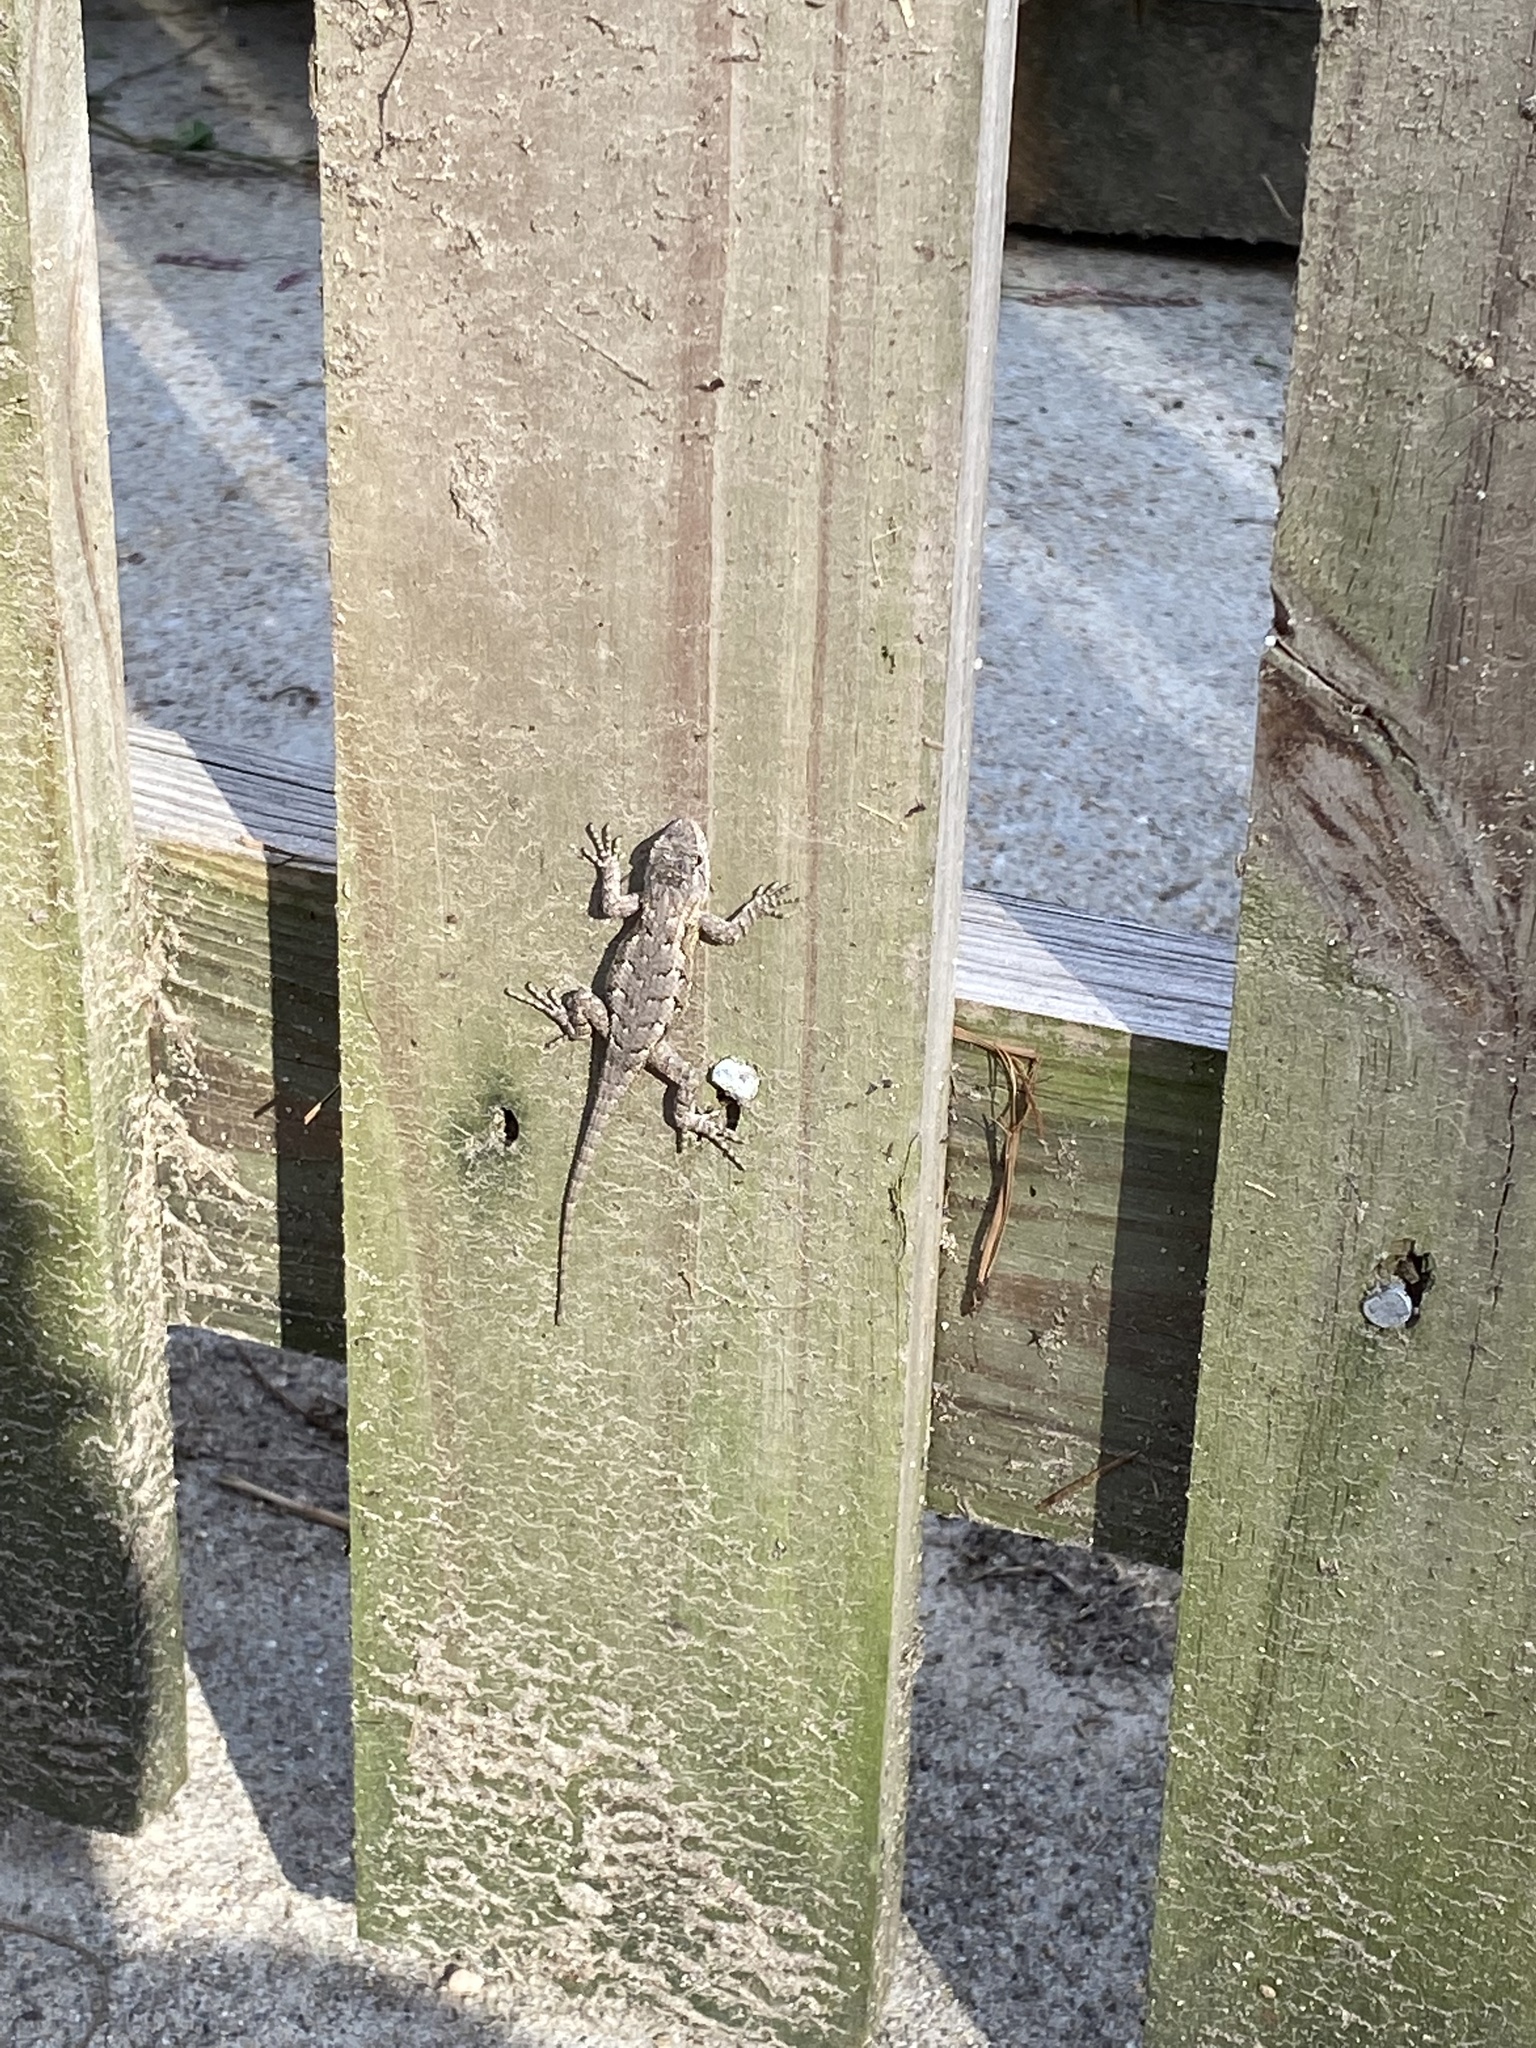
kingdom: Animalia
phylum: Chordata
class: Squamata
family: Phrynosomatidae
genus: Sceloporus
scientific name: Sceloporus undulatus
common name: Eastern fence lizard
